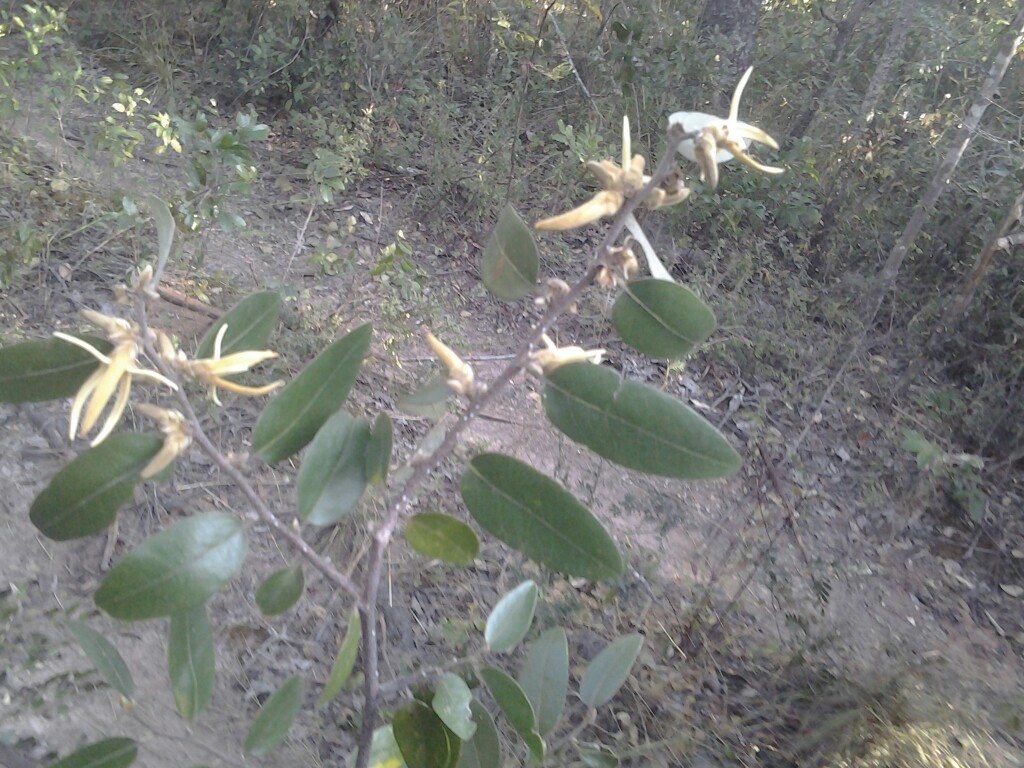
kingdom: Plantae
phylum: Tracheophyta
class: Magnoliopsida
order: Magnoliales
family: Annonaceae
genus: Xylopia
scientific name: Xylopia tomentosa
